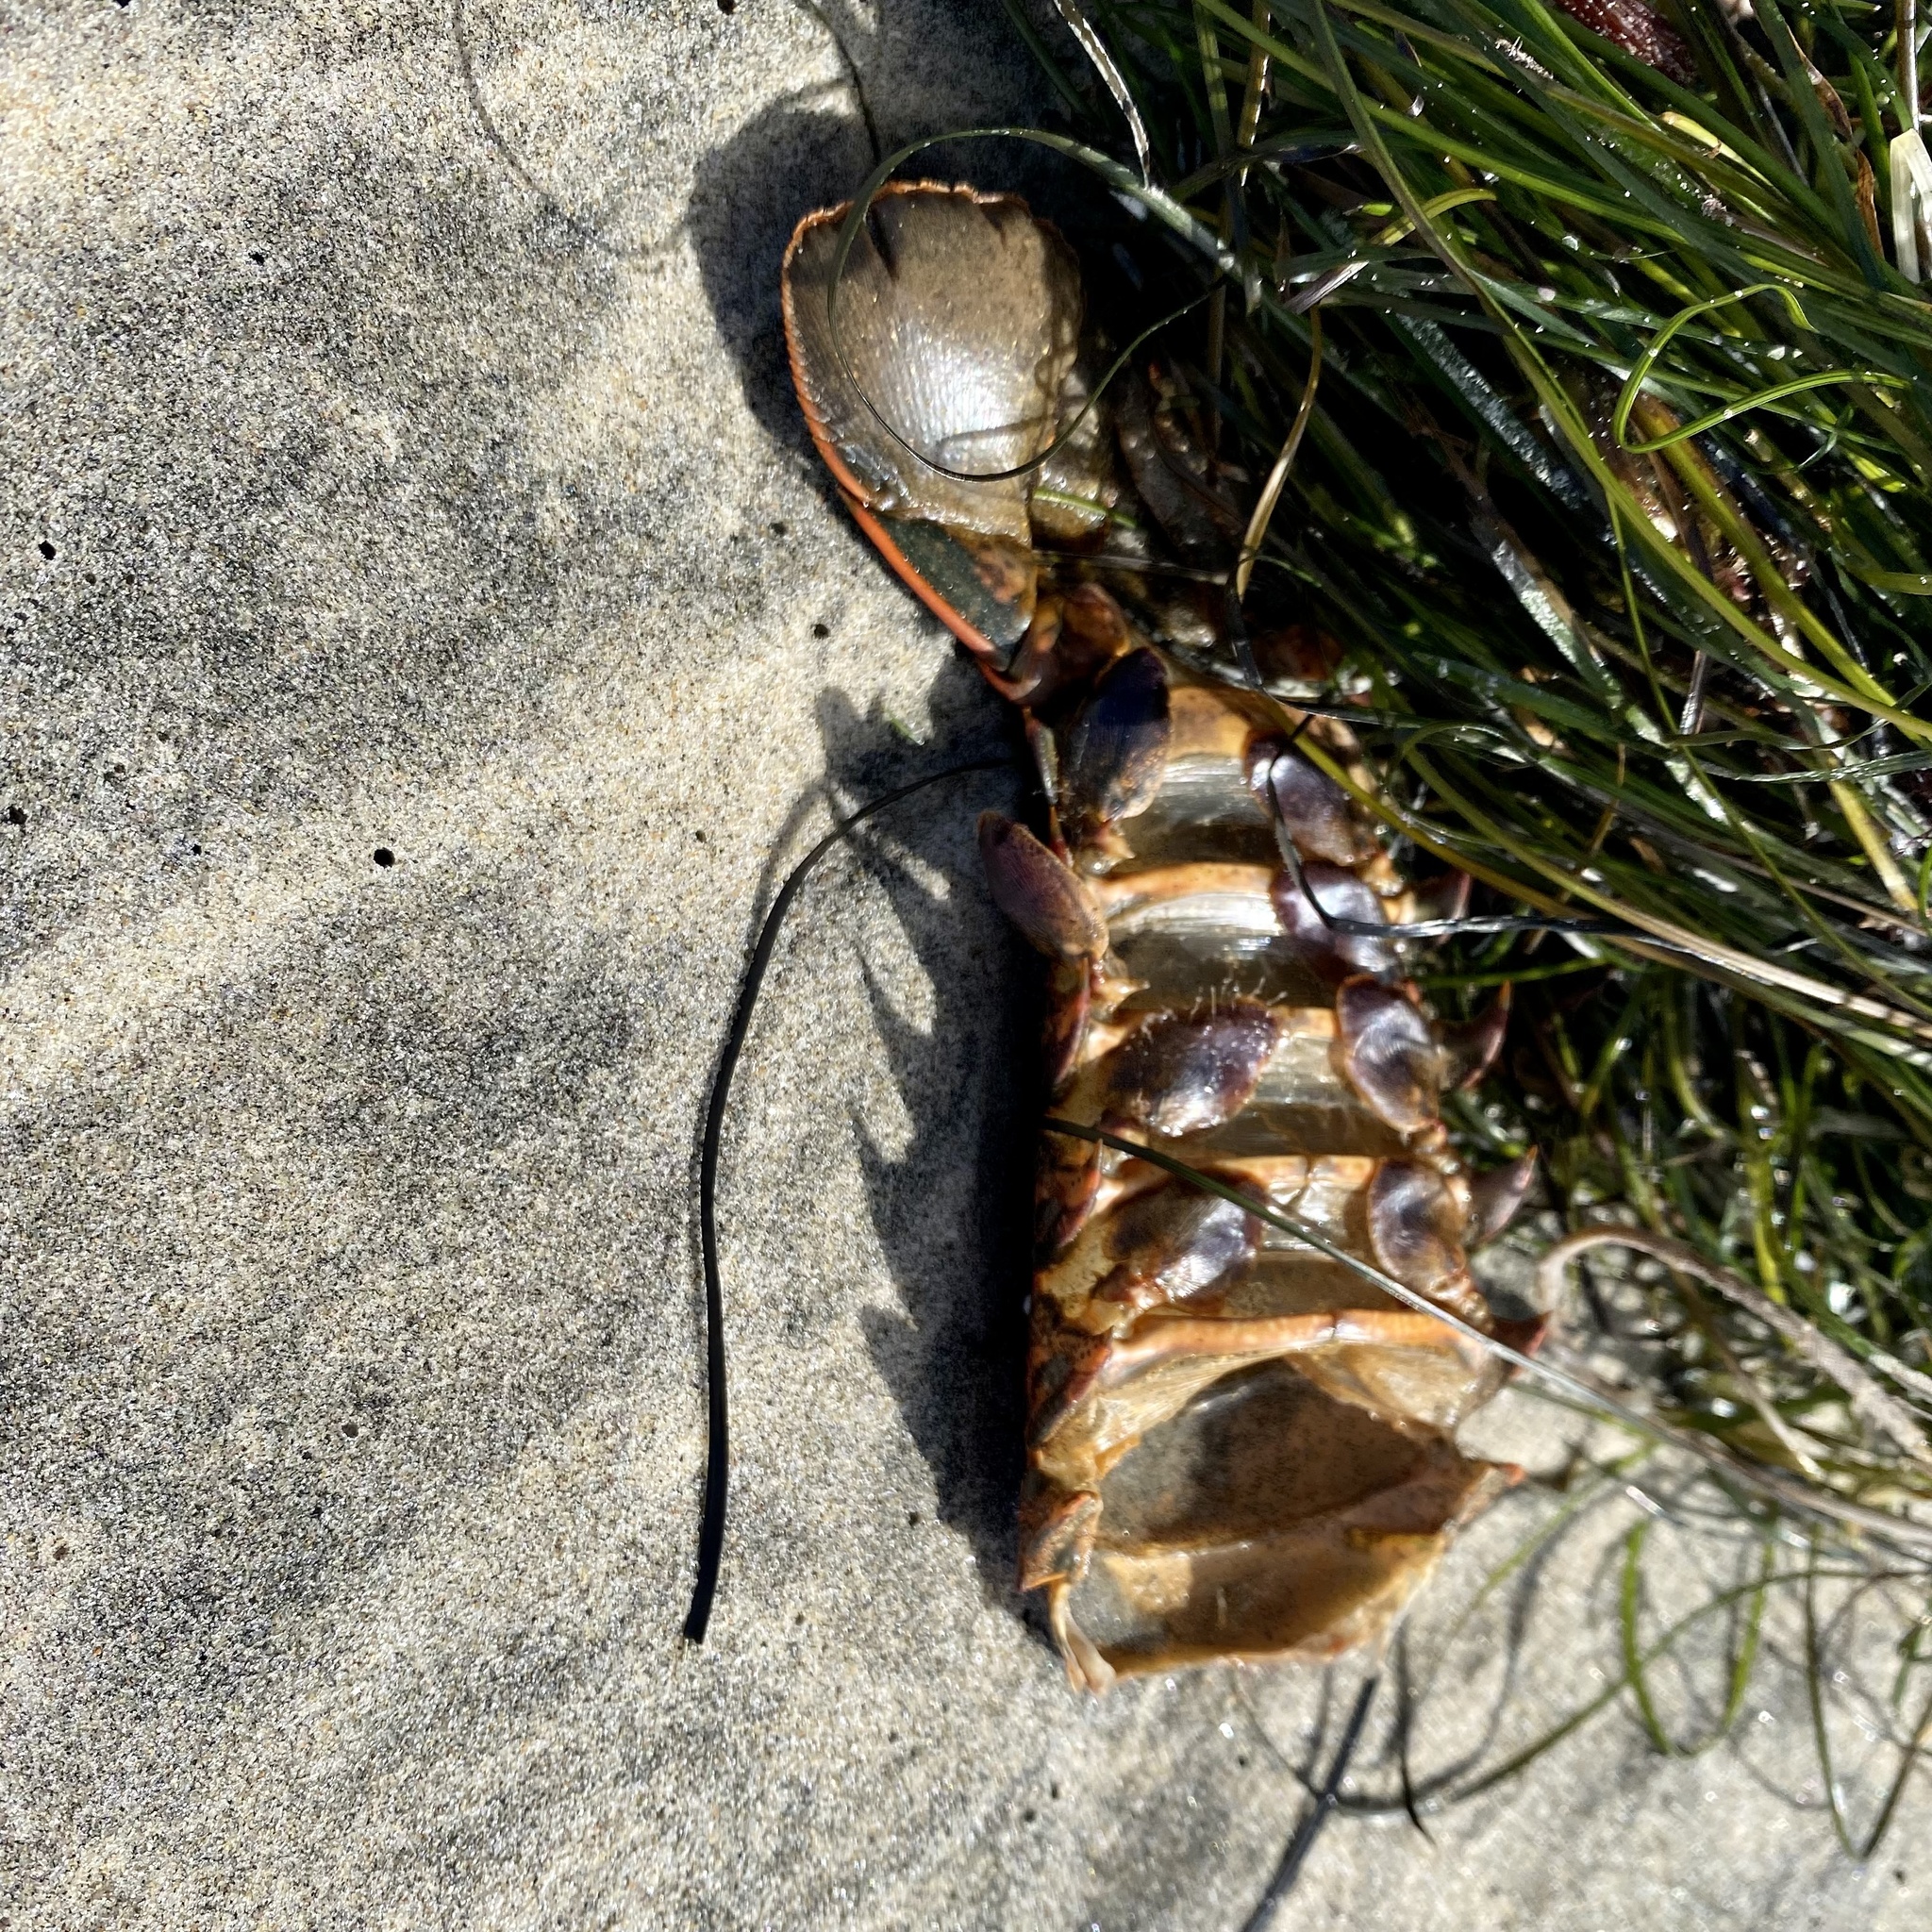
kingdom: Animalia
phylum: Arthropoda
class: Malacostraca
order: Decapoda
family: Palinuridae
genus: Panulirus
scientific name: Panulirus interruptus
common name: California spiny lobster
